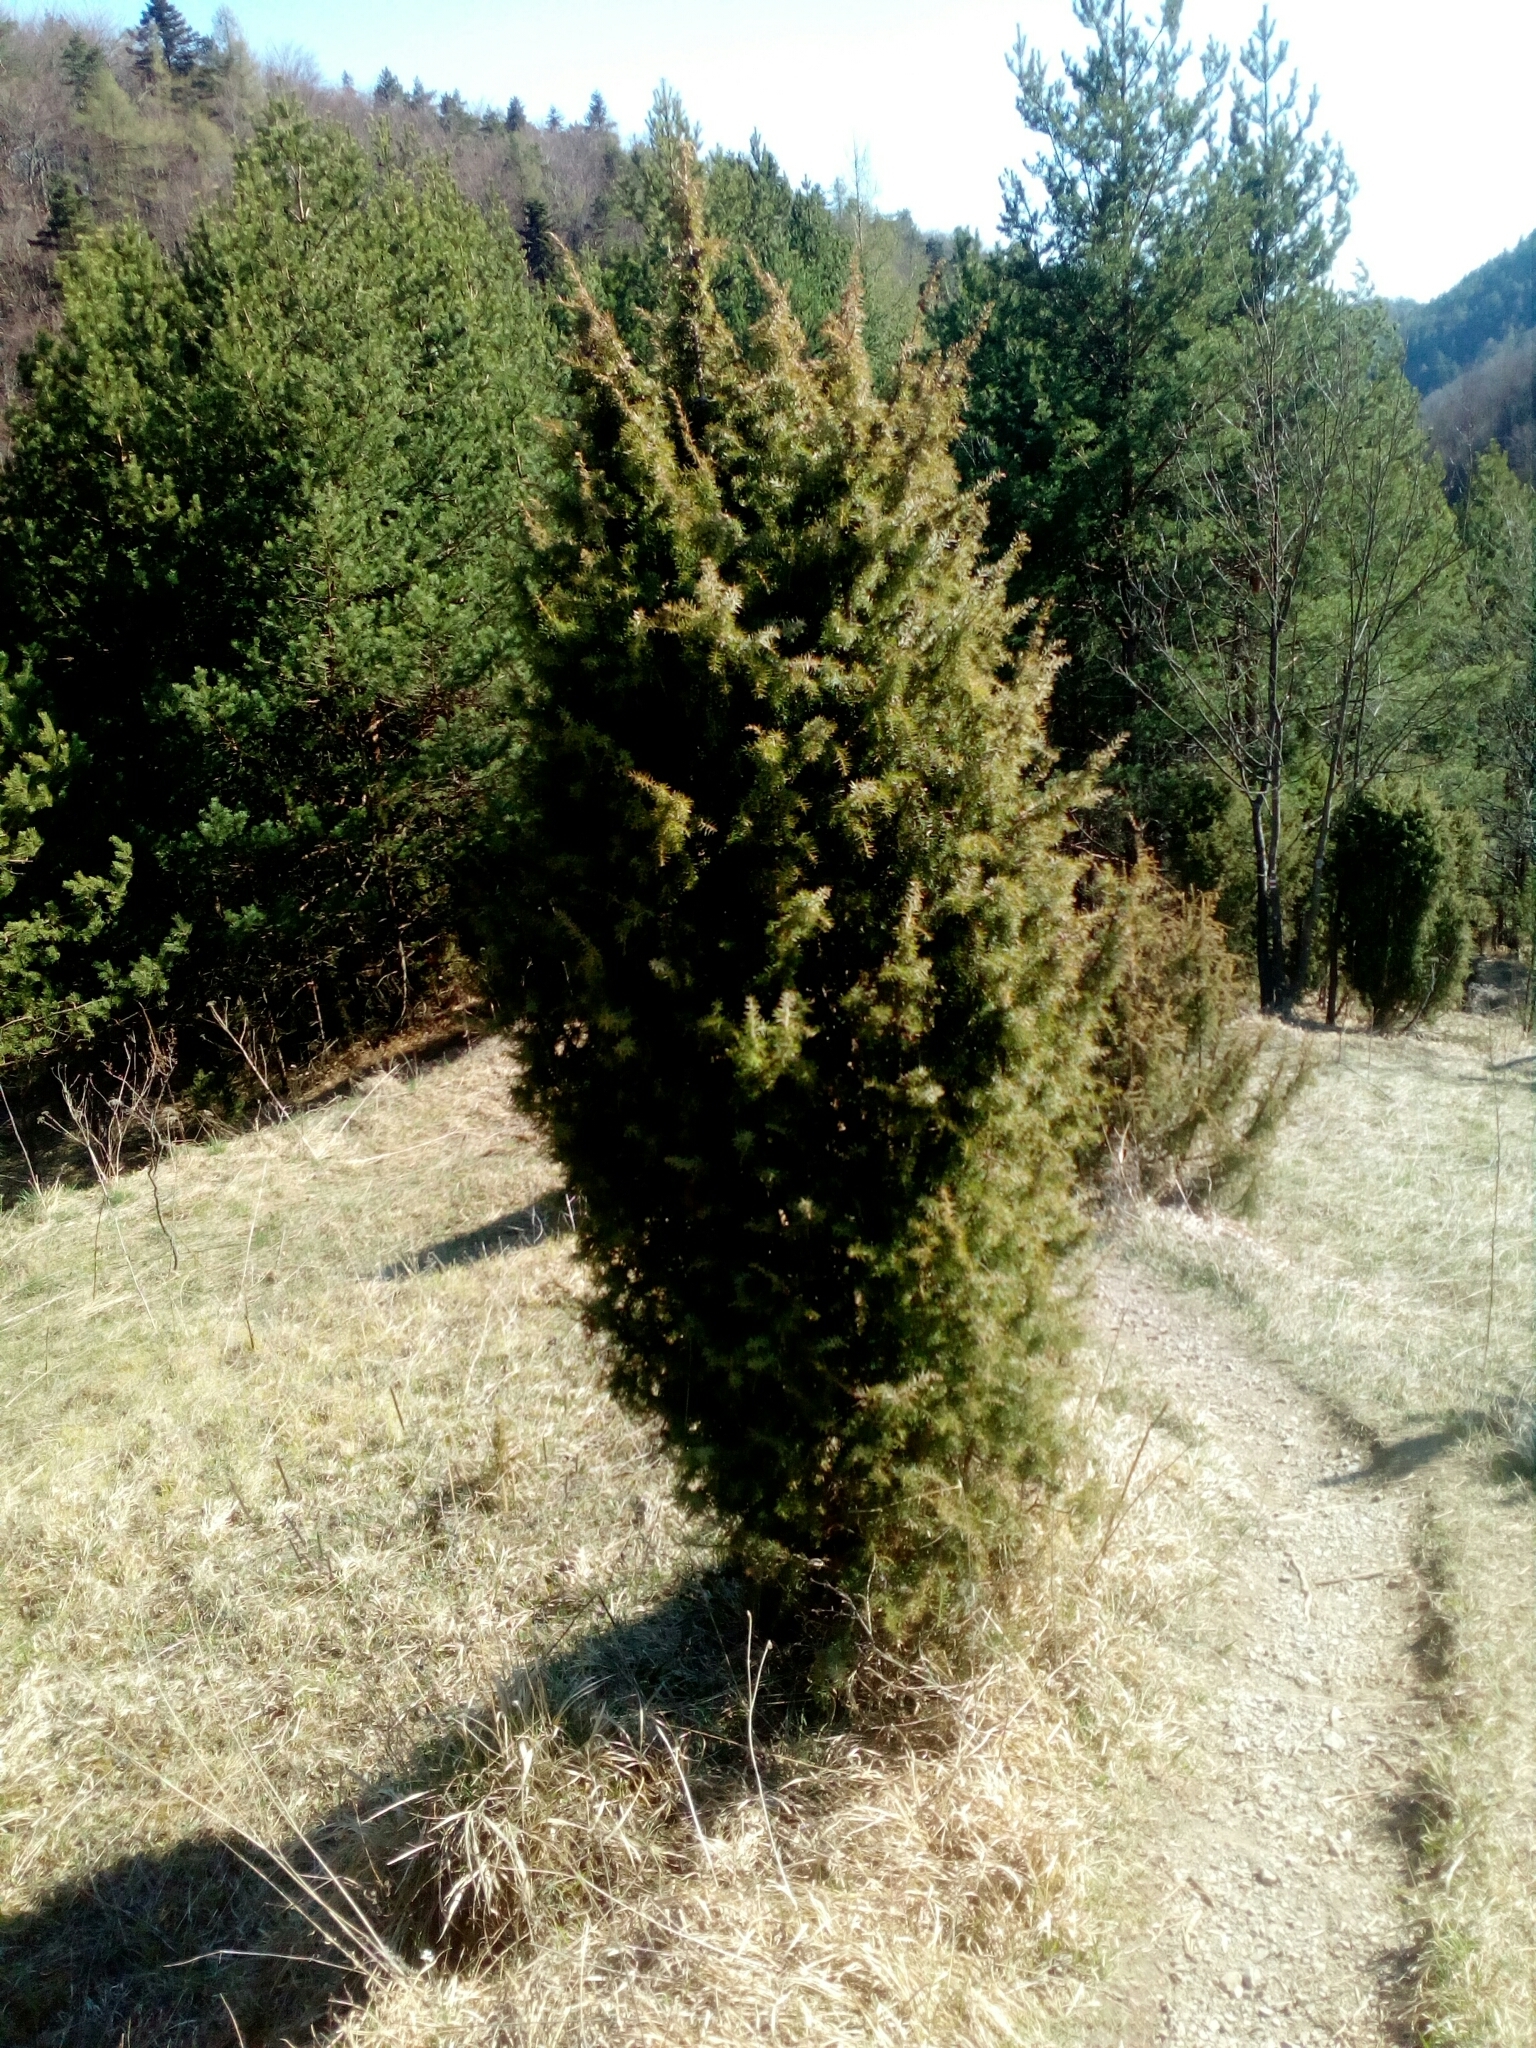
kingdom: Plantae
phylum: Tracheophyta
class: Pinopsida
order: Pinales
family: Cupressaceae
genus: Juniperus
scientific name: Juniperus communis
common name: Common juniper
